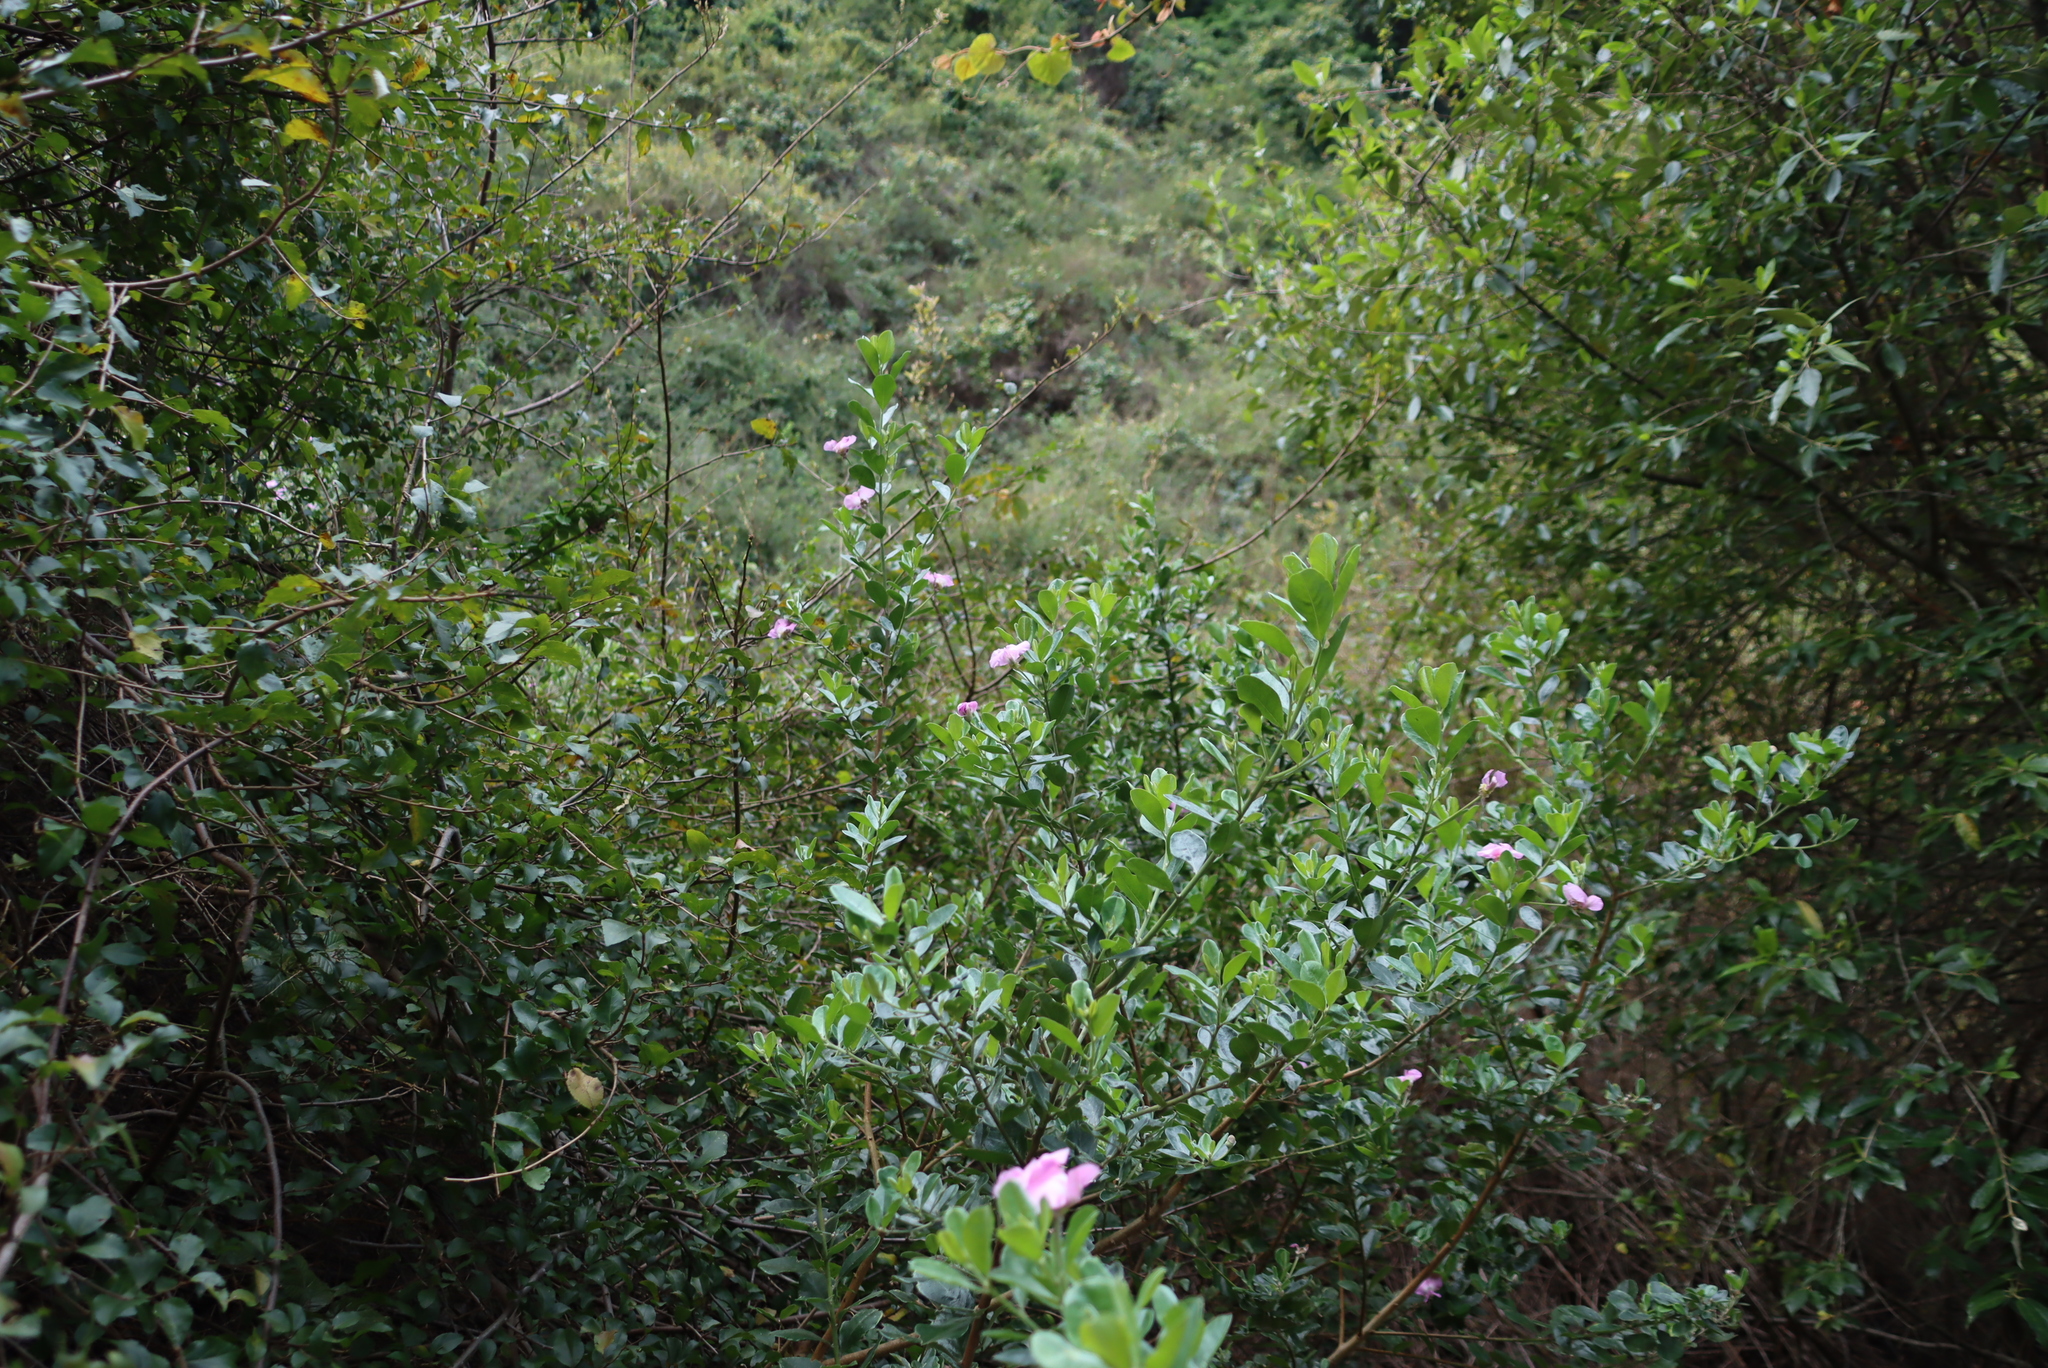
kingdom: Plantae
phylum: Tracheophyta
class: Magnoliopsida
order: Fabales
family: Fabaceae
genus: Podalyria
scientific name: Podalyria calyptrata
